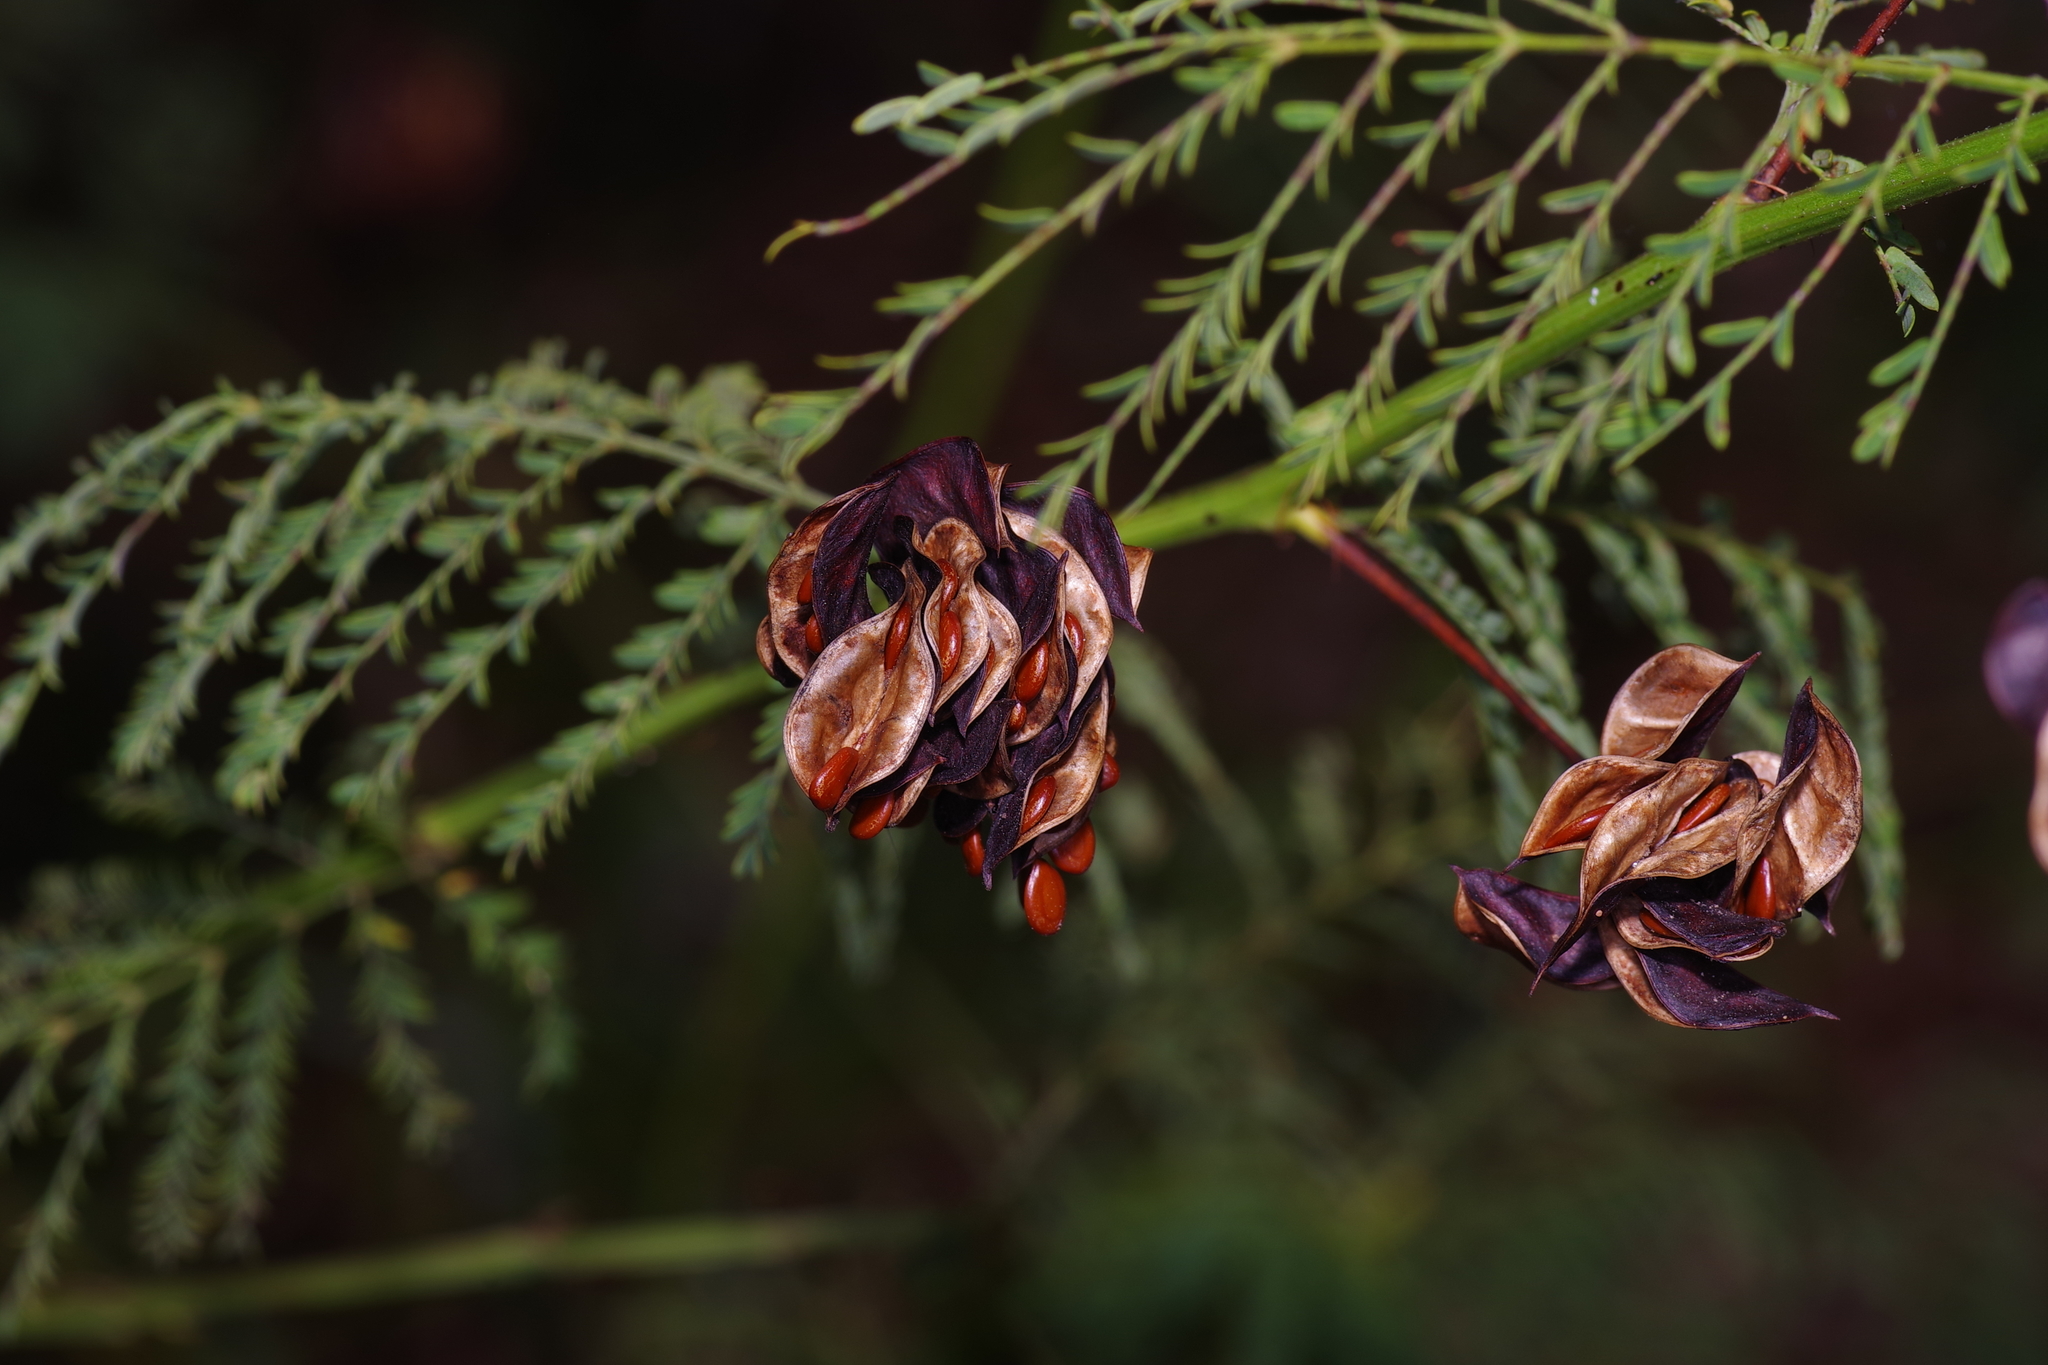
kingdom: Plantae
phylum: Tracheophyta
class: Magnoliopsida
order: Fabales
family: Fabaceae
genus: Desmanthus
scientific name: Desmanthus illinoensis
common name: Illinois bundle-flower
